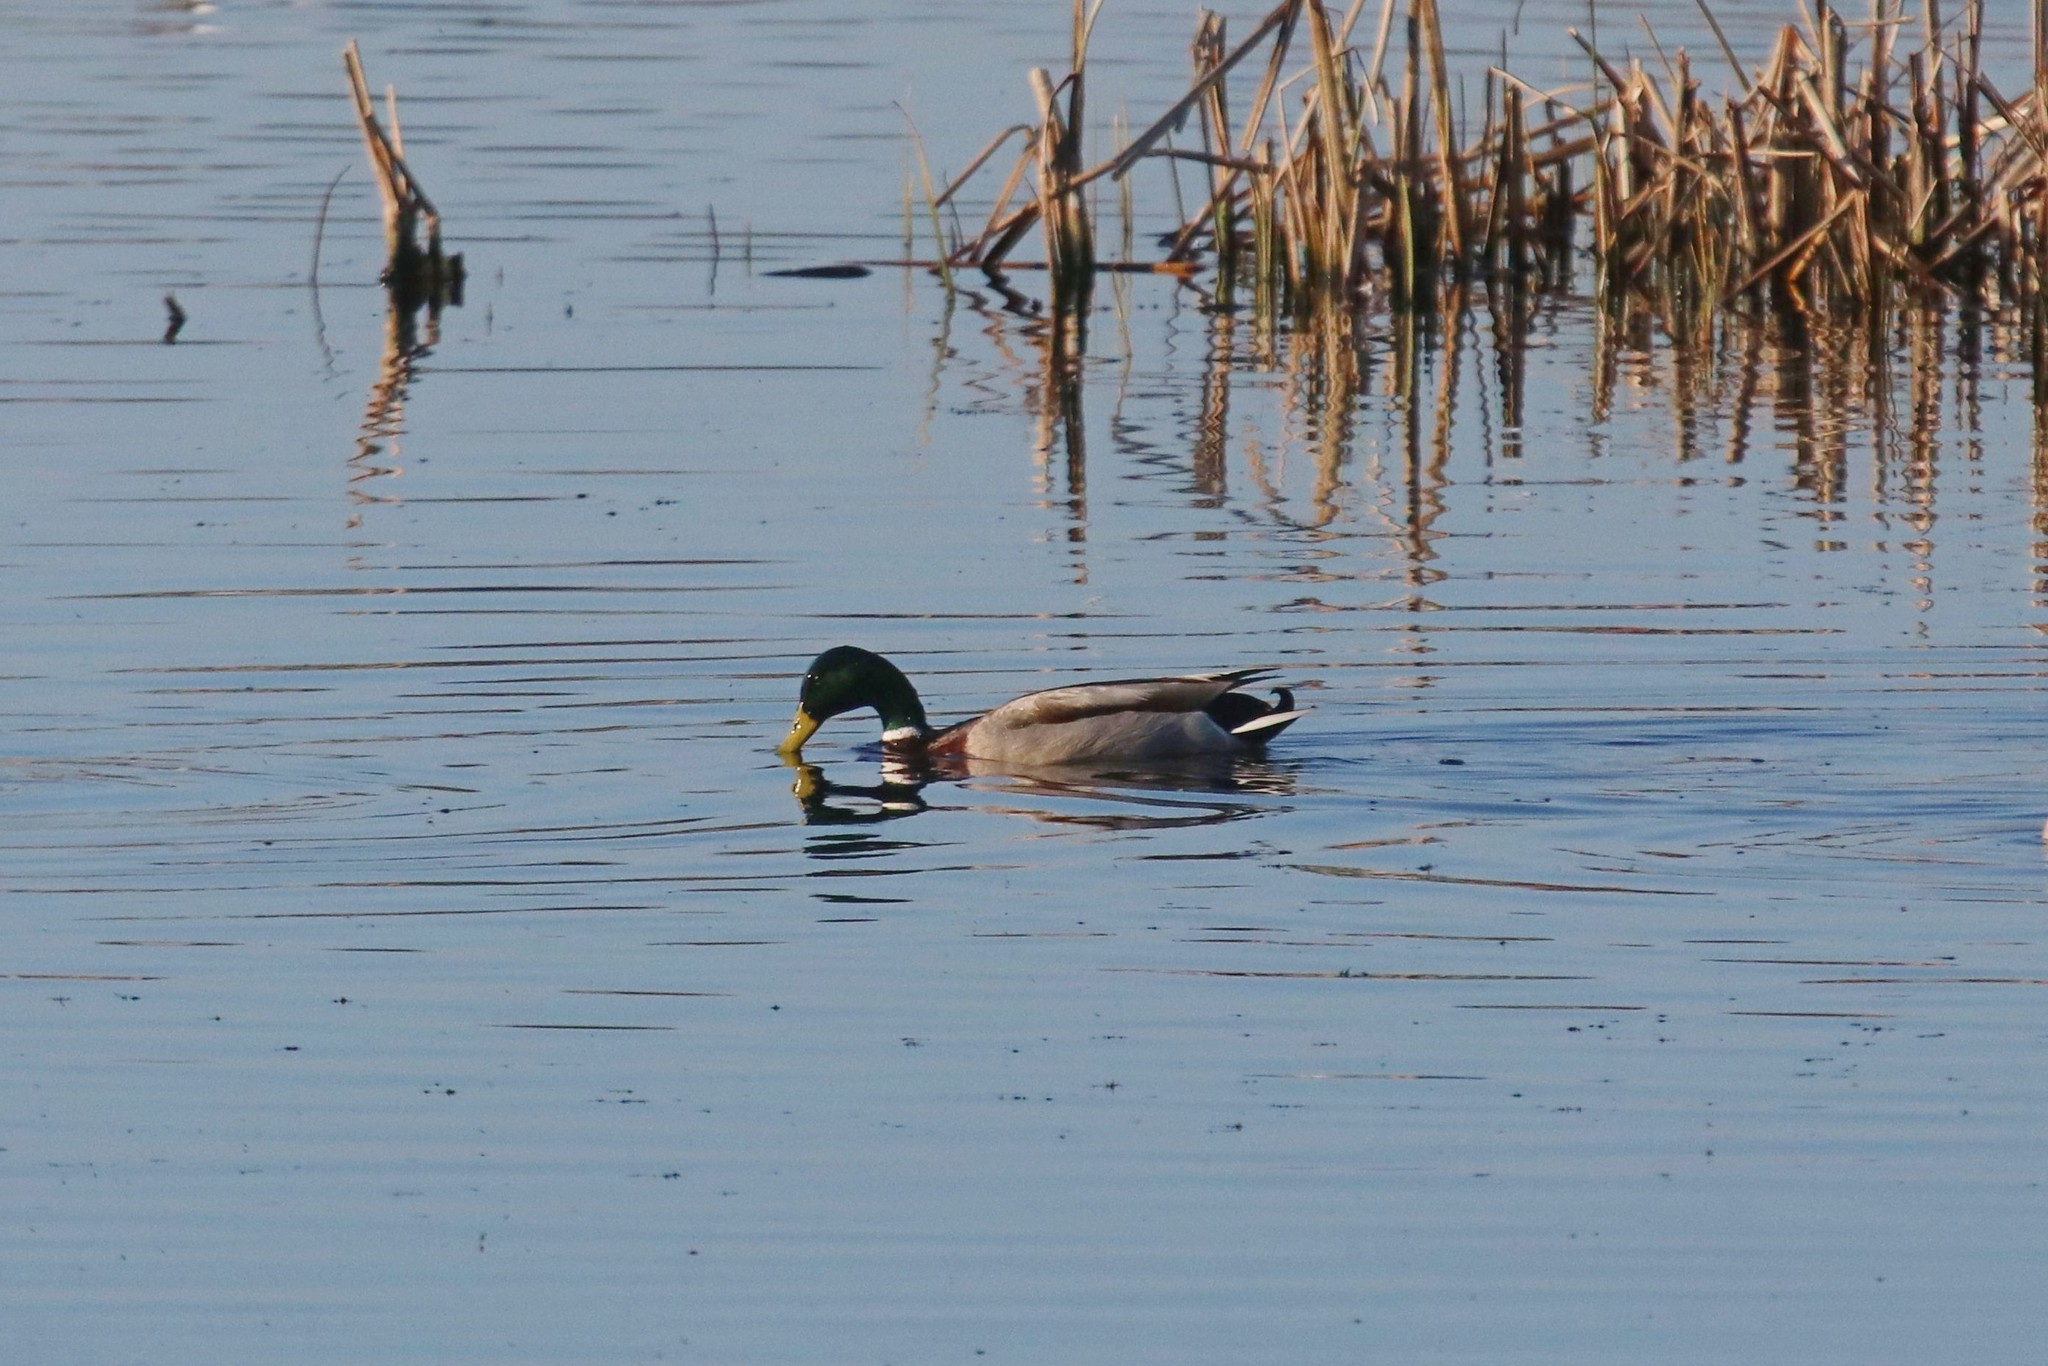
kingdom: Animalia
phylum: Chordata
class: Aves
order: Anseriformes
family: Anatidae
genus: Anas
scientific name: Anas platyrhynchos
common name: Mallard
